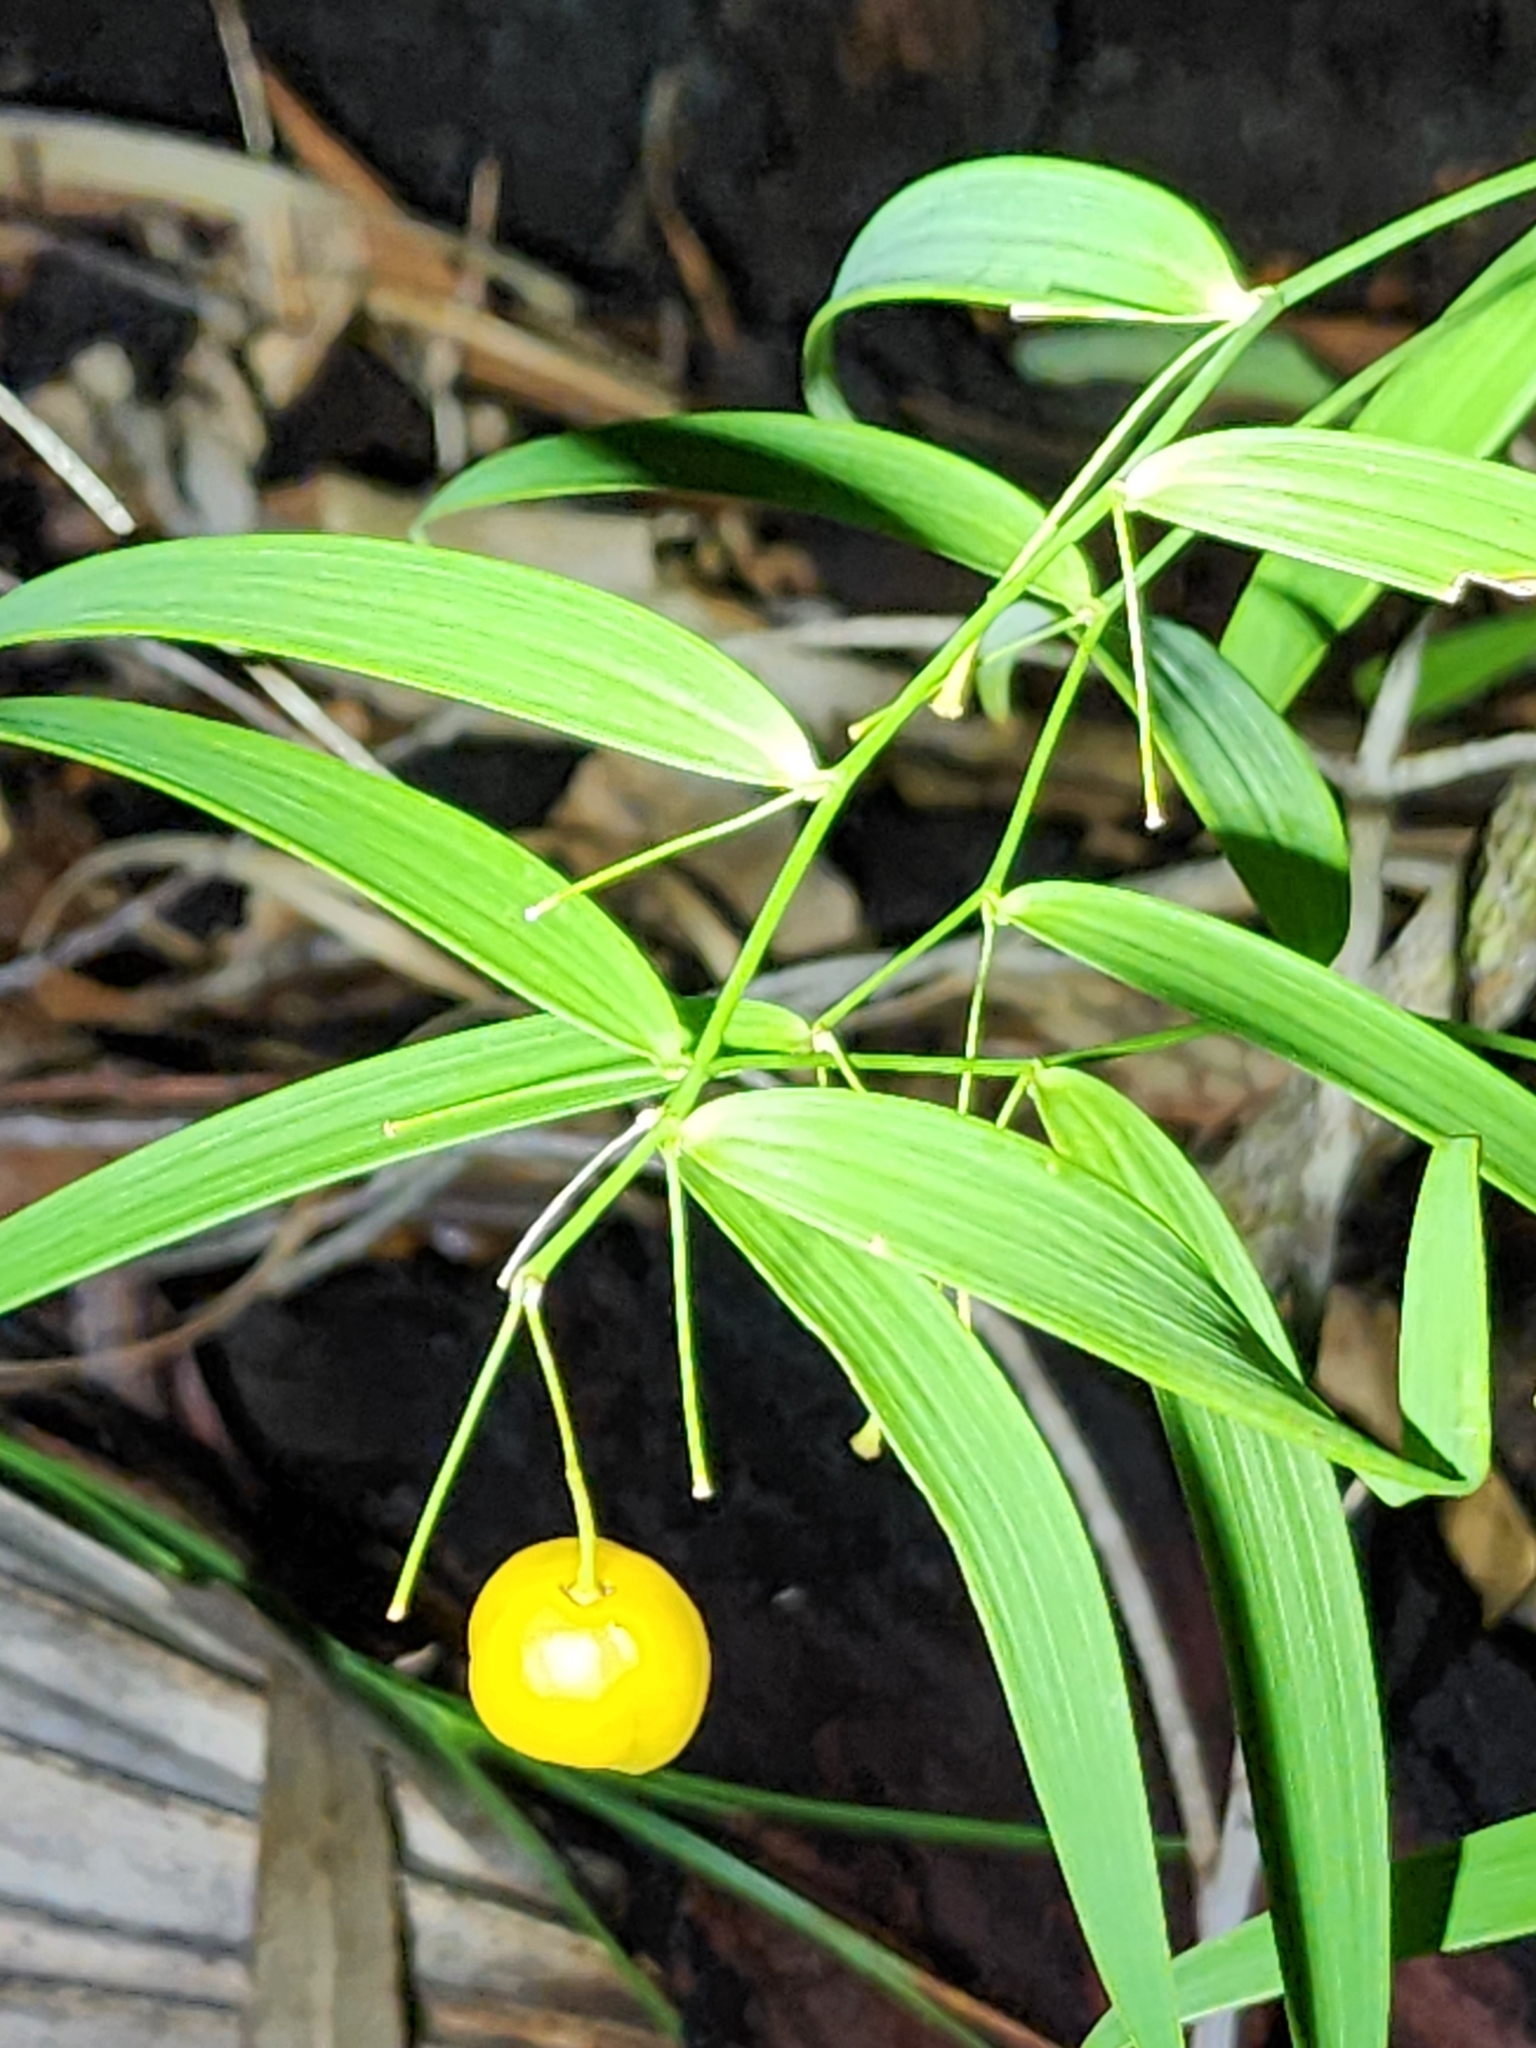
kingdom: Plantae
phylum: Tracheophyta
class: Liliopsida
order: Asparagales
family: Asparagaceae
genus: Eustrephus
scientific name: Eustrephus latifolius
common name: Orangevine
